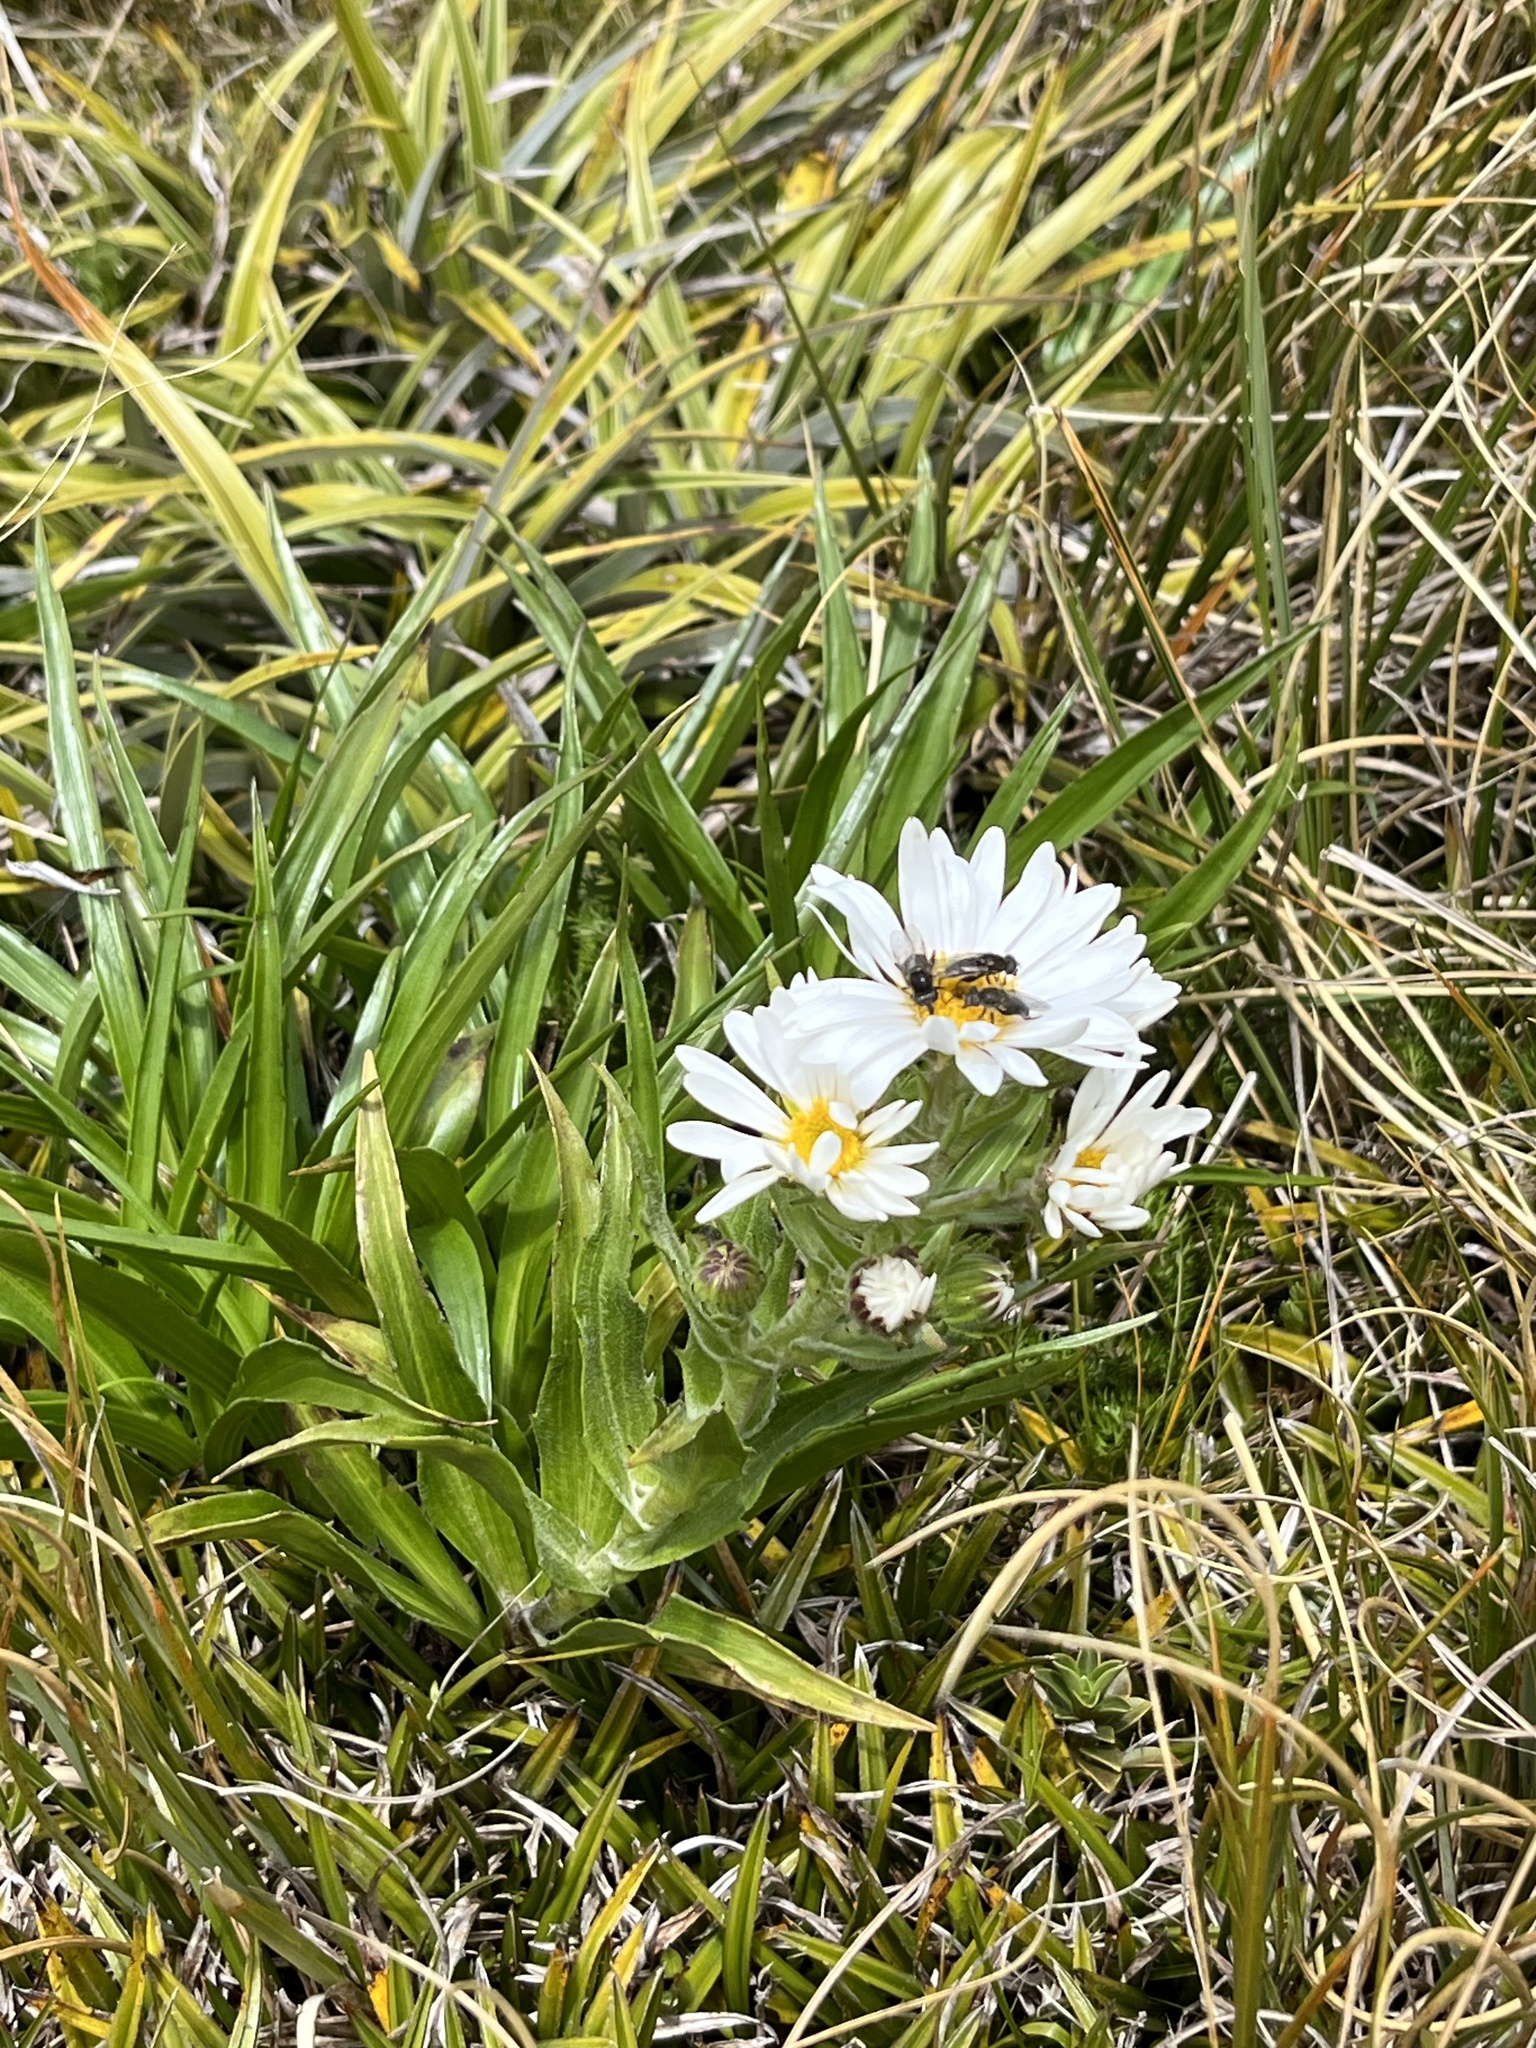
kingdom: Plantae
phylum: Tracheophyta
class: Magnoliopsida
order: Asterales
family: Asteraceae
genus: Dolichoglottis
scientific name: Dolichoglottis scorzoneroides
